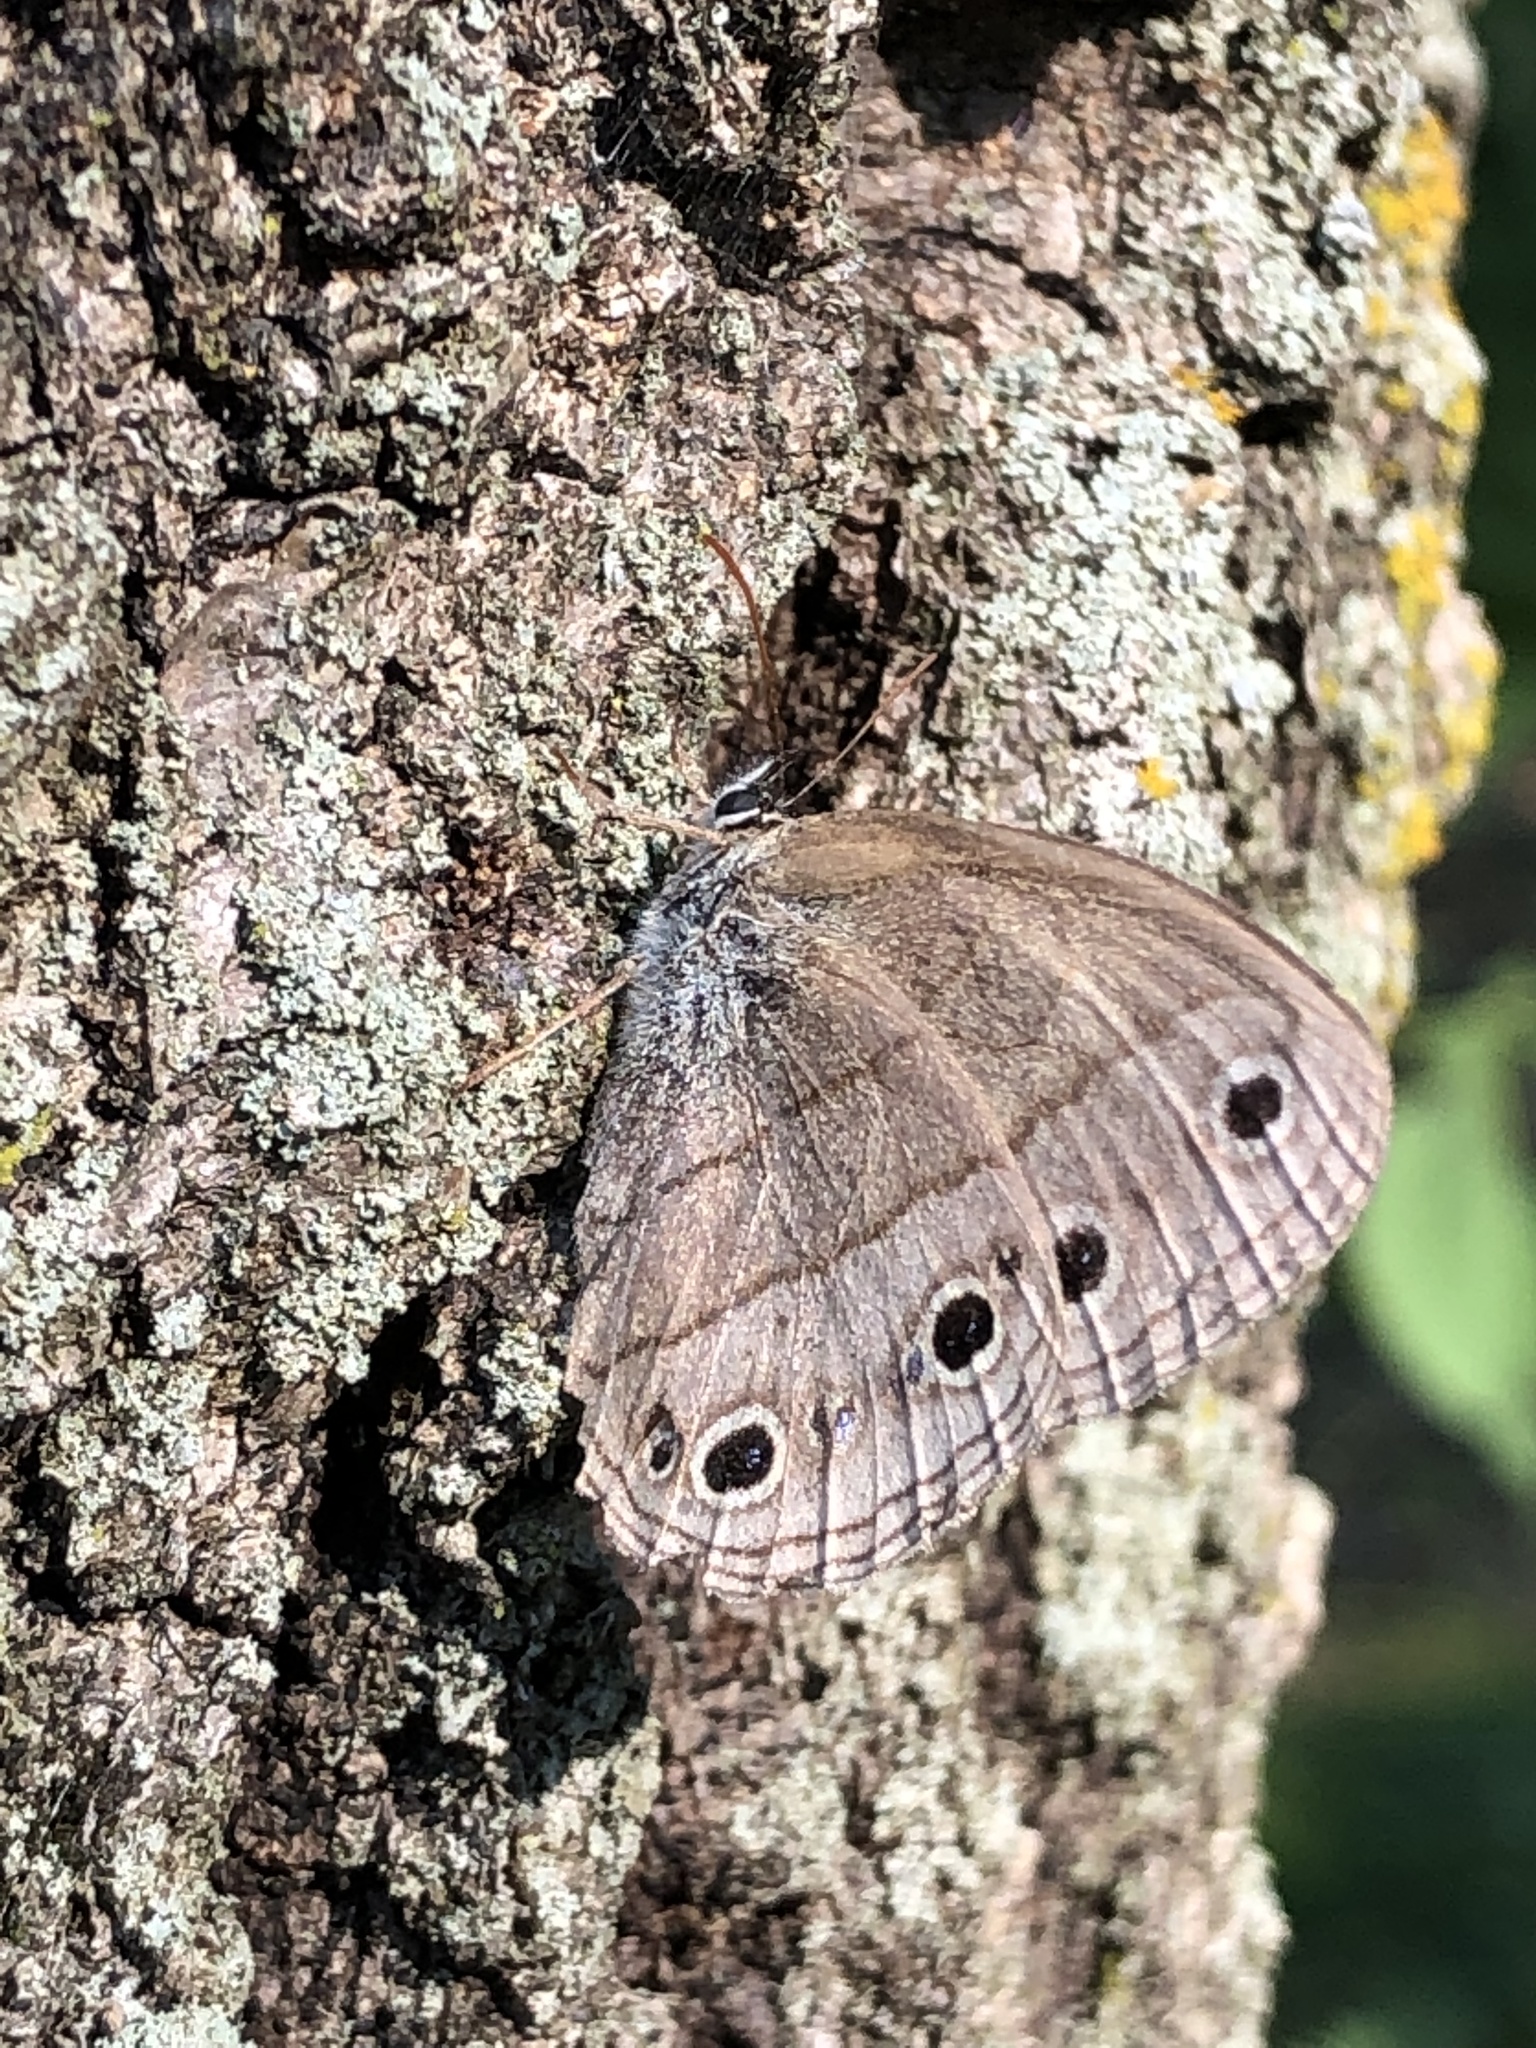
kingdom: Animalia
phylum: Arthropoda
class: Insecta
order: Lepidoptera
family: Nymphalidae
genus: Euptychia
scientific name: Euptychia cymela
